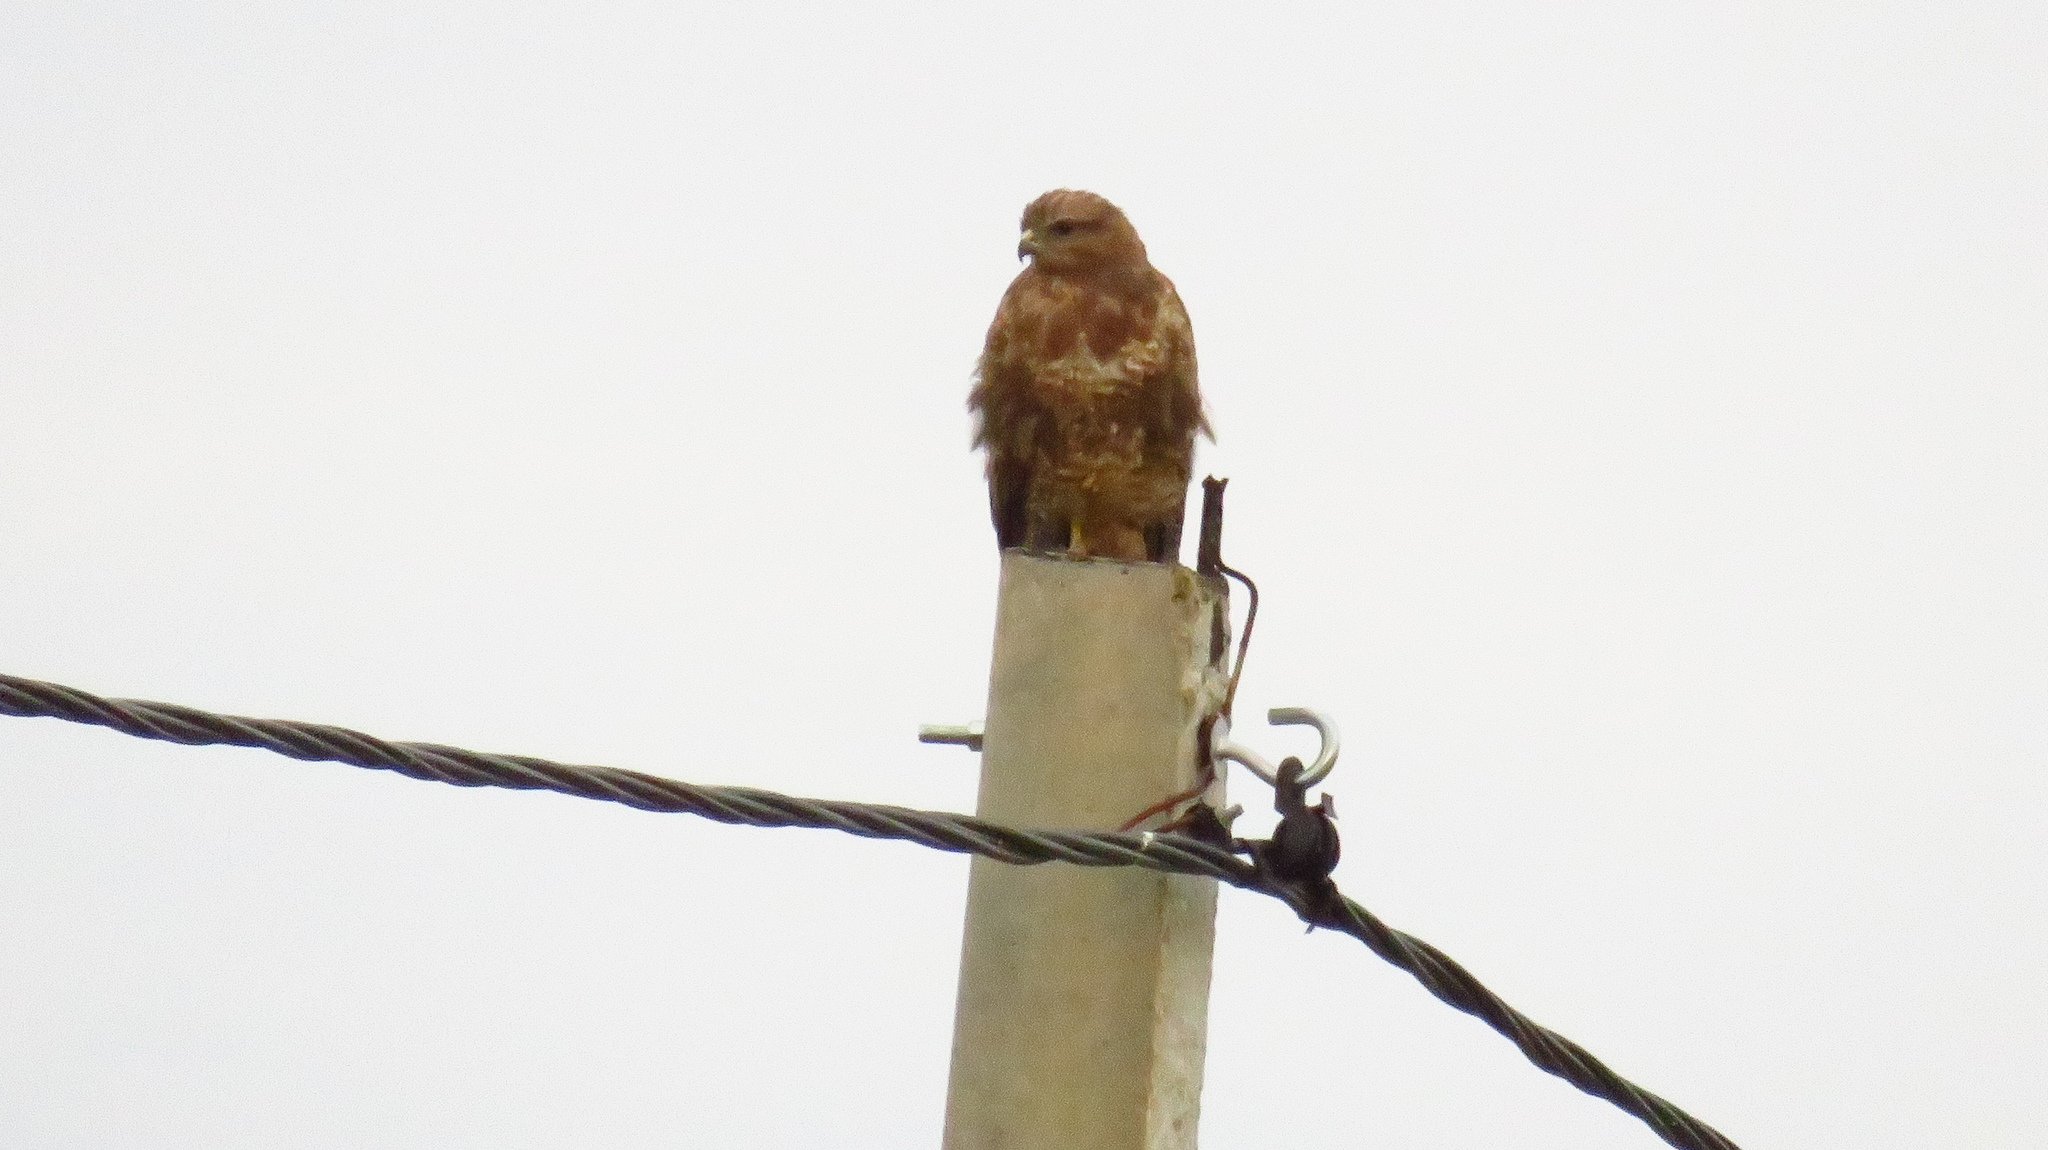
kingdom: Animalia
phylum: Chordata
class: Aves
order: Accipitriformes
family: Accipitridae
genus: Buteo
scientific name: Buteo buteo
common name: Common buzzard
